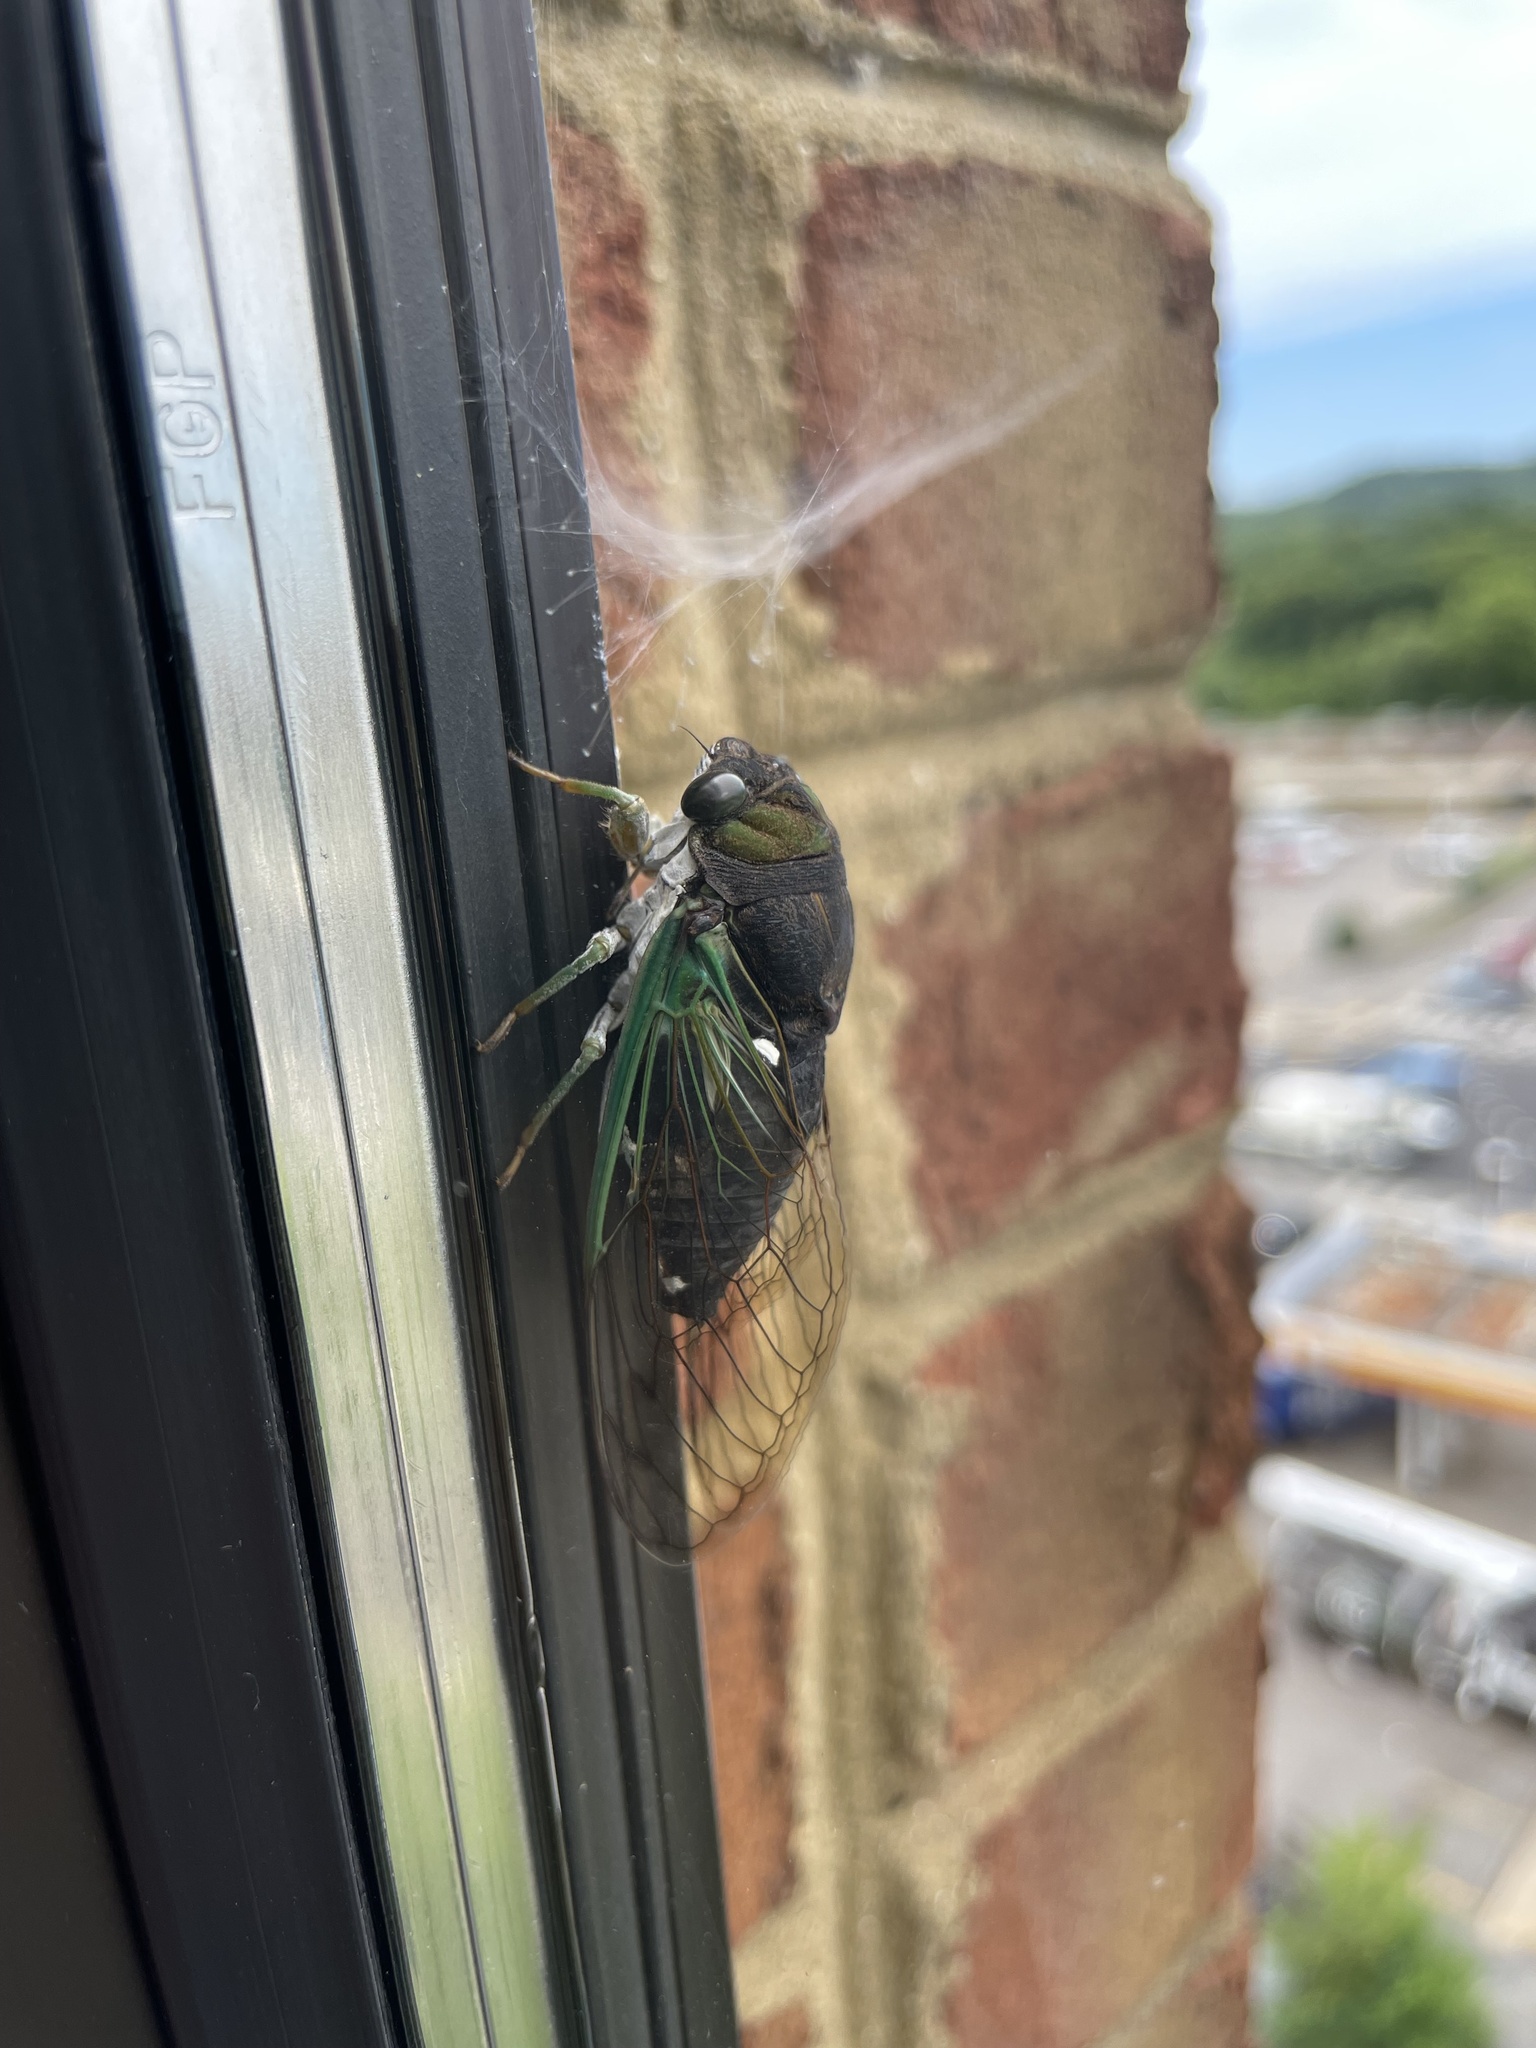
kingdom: Animalia
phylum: Arthropoda
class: Insecta
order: Hemiptera
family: Cicadidae
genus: Neotibicen
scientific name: Neotibicen tibicen
